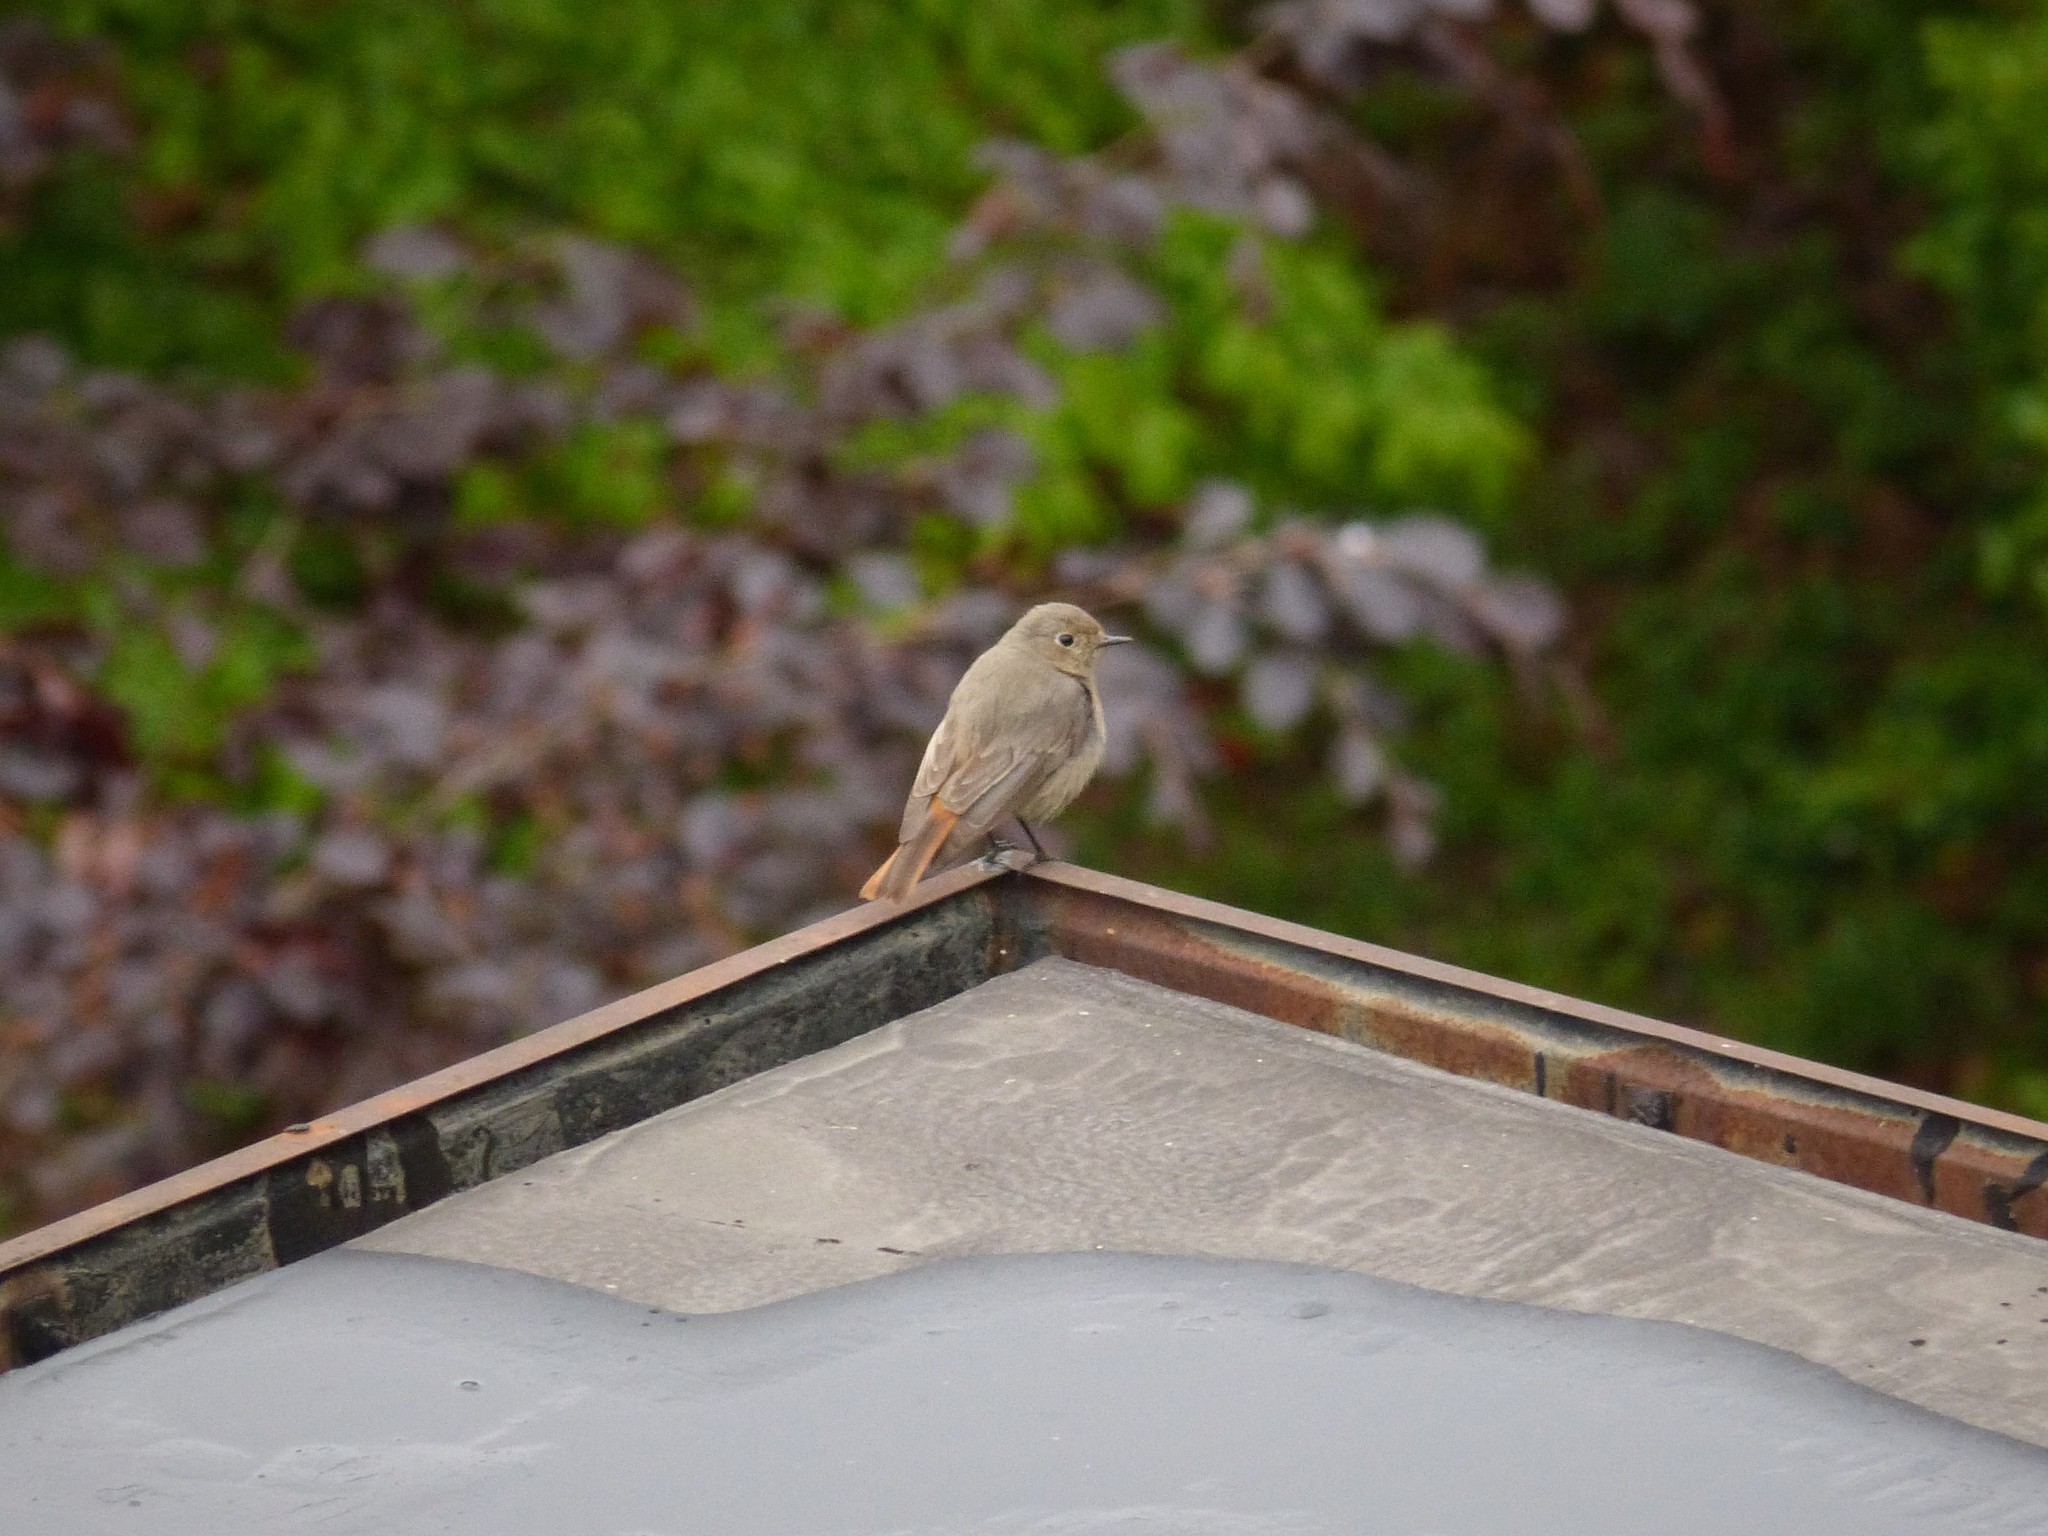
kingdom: Animalia
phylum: Chordata
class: Aves
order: Passeriformes
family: Muscicapidae
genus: Phoenicurus
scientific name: Phoenicurus ochruros
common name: Black redstart
